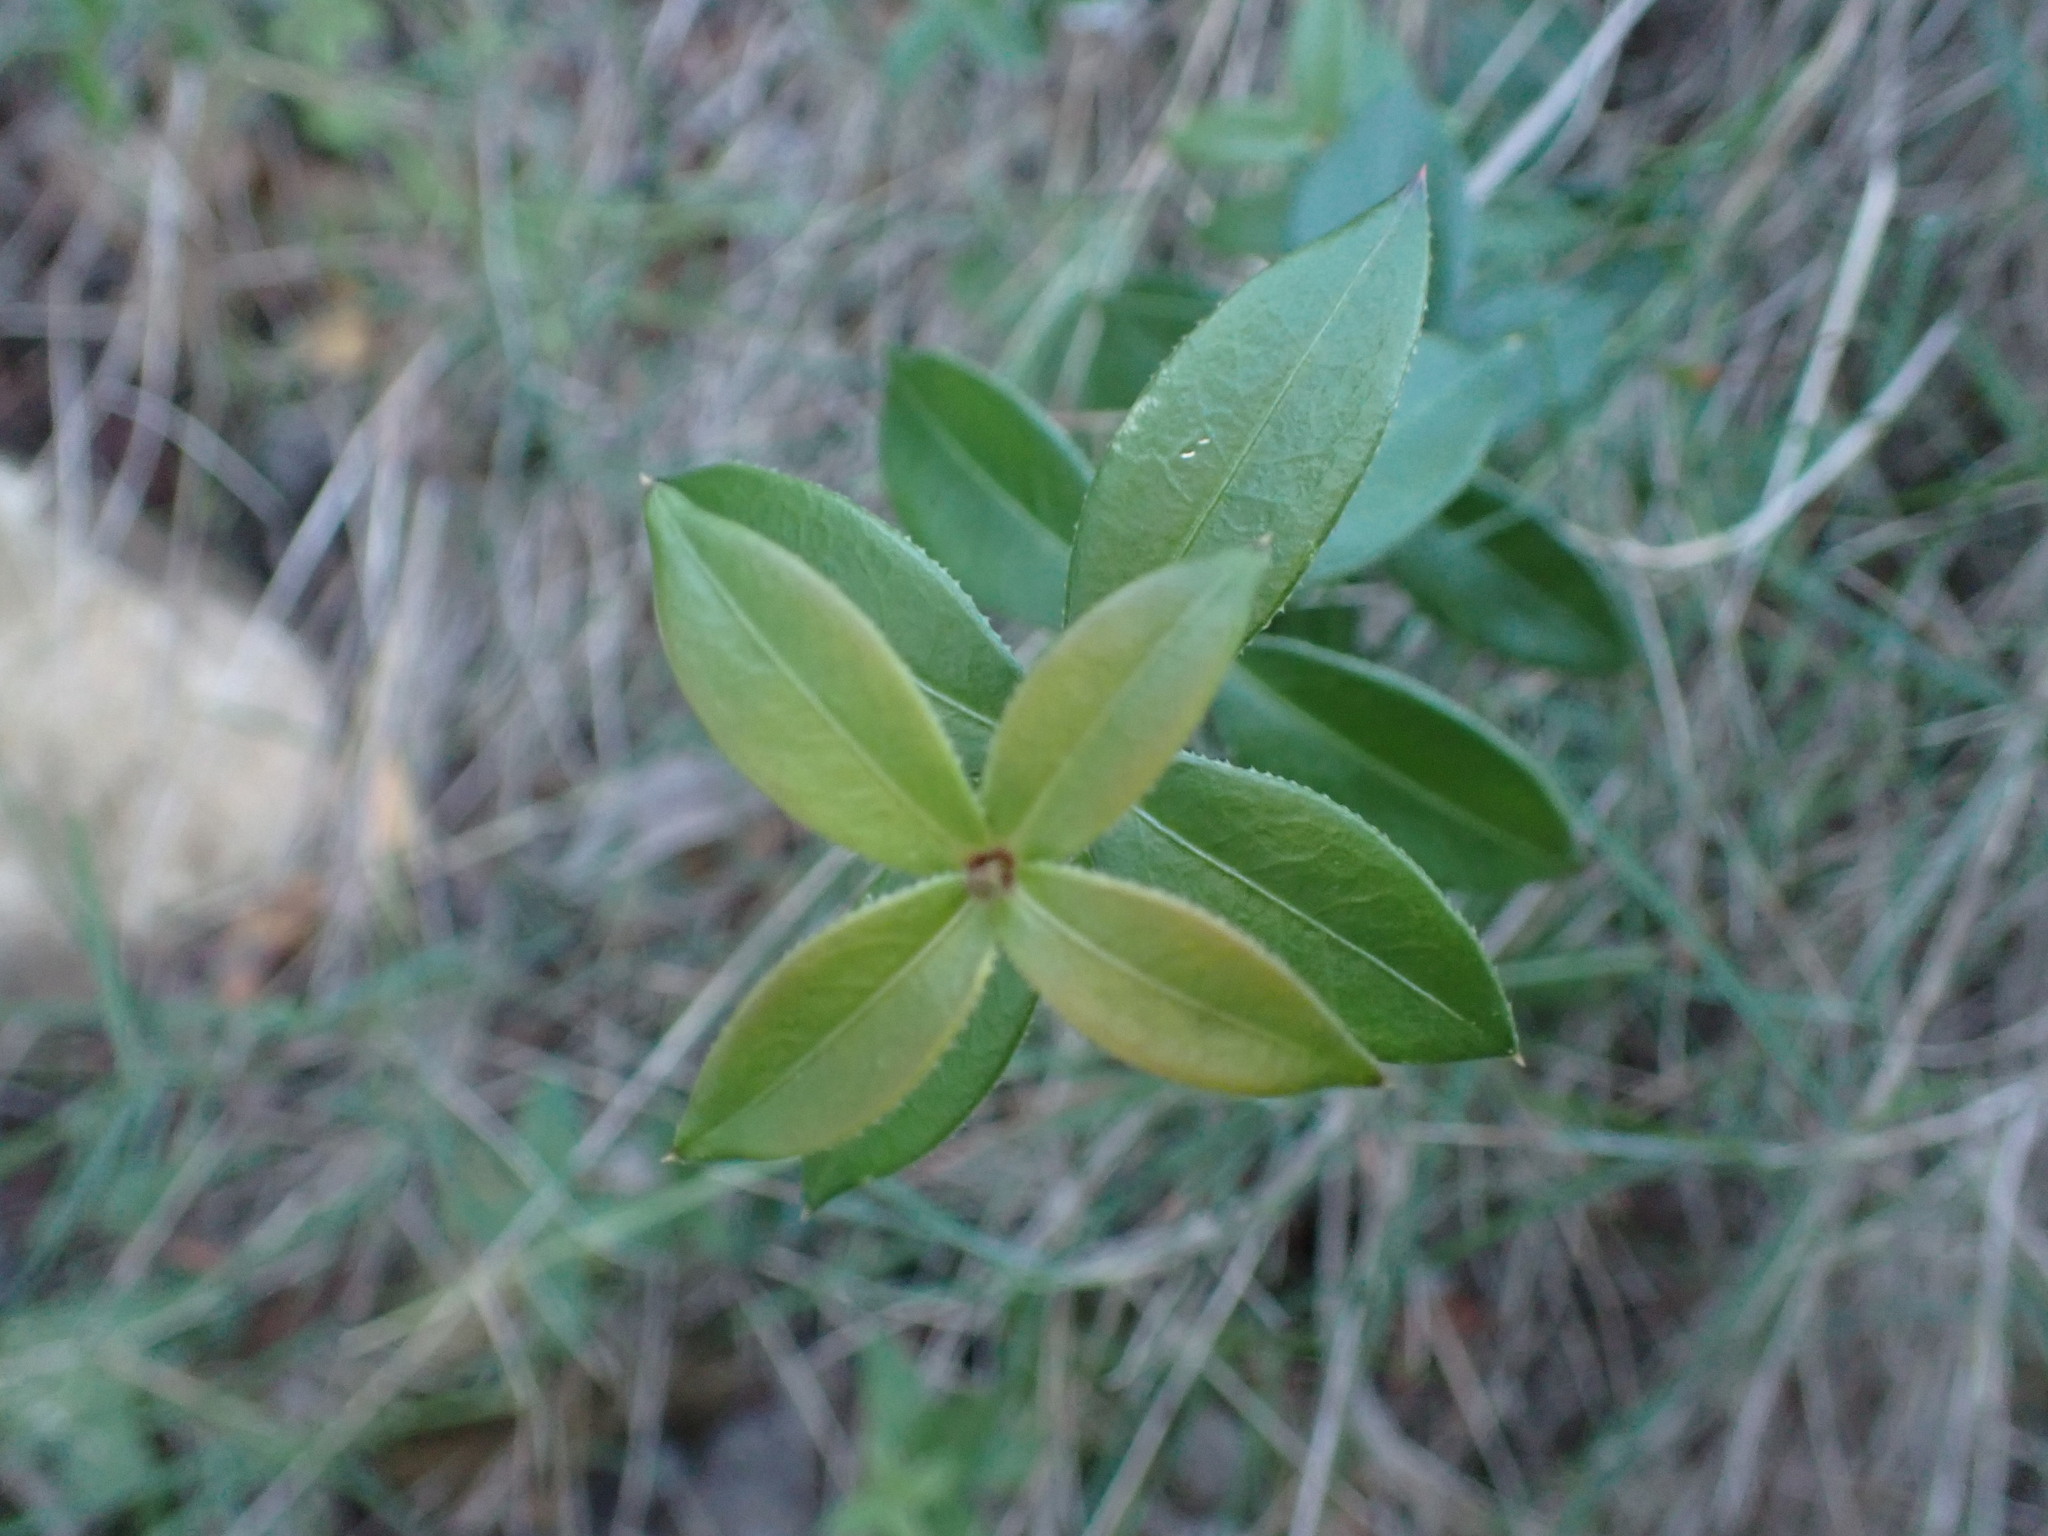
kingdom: Plantae
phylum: Tracheophyta
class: Magnoliopsida
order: Gentianales
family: Rubiaceae
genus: Rubia
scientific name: Rubia peregrina
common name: Wild madder
